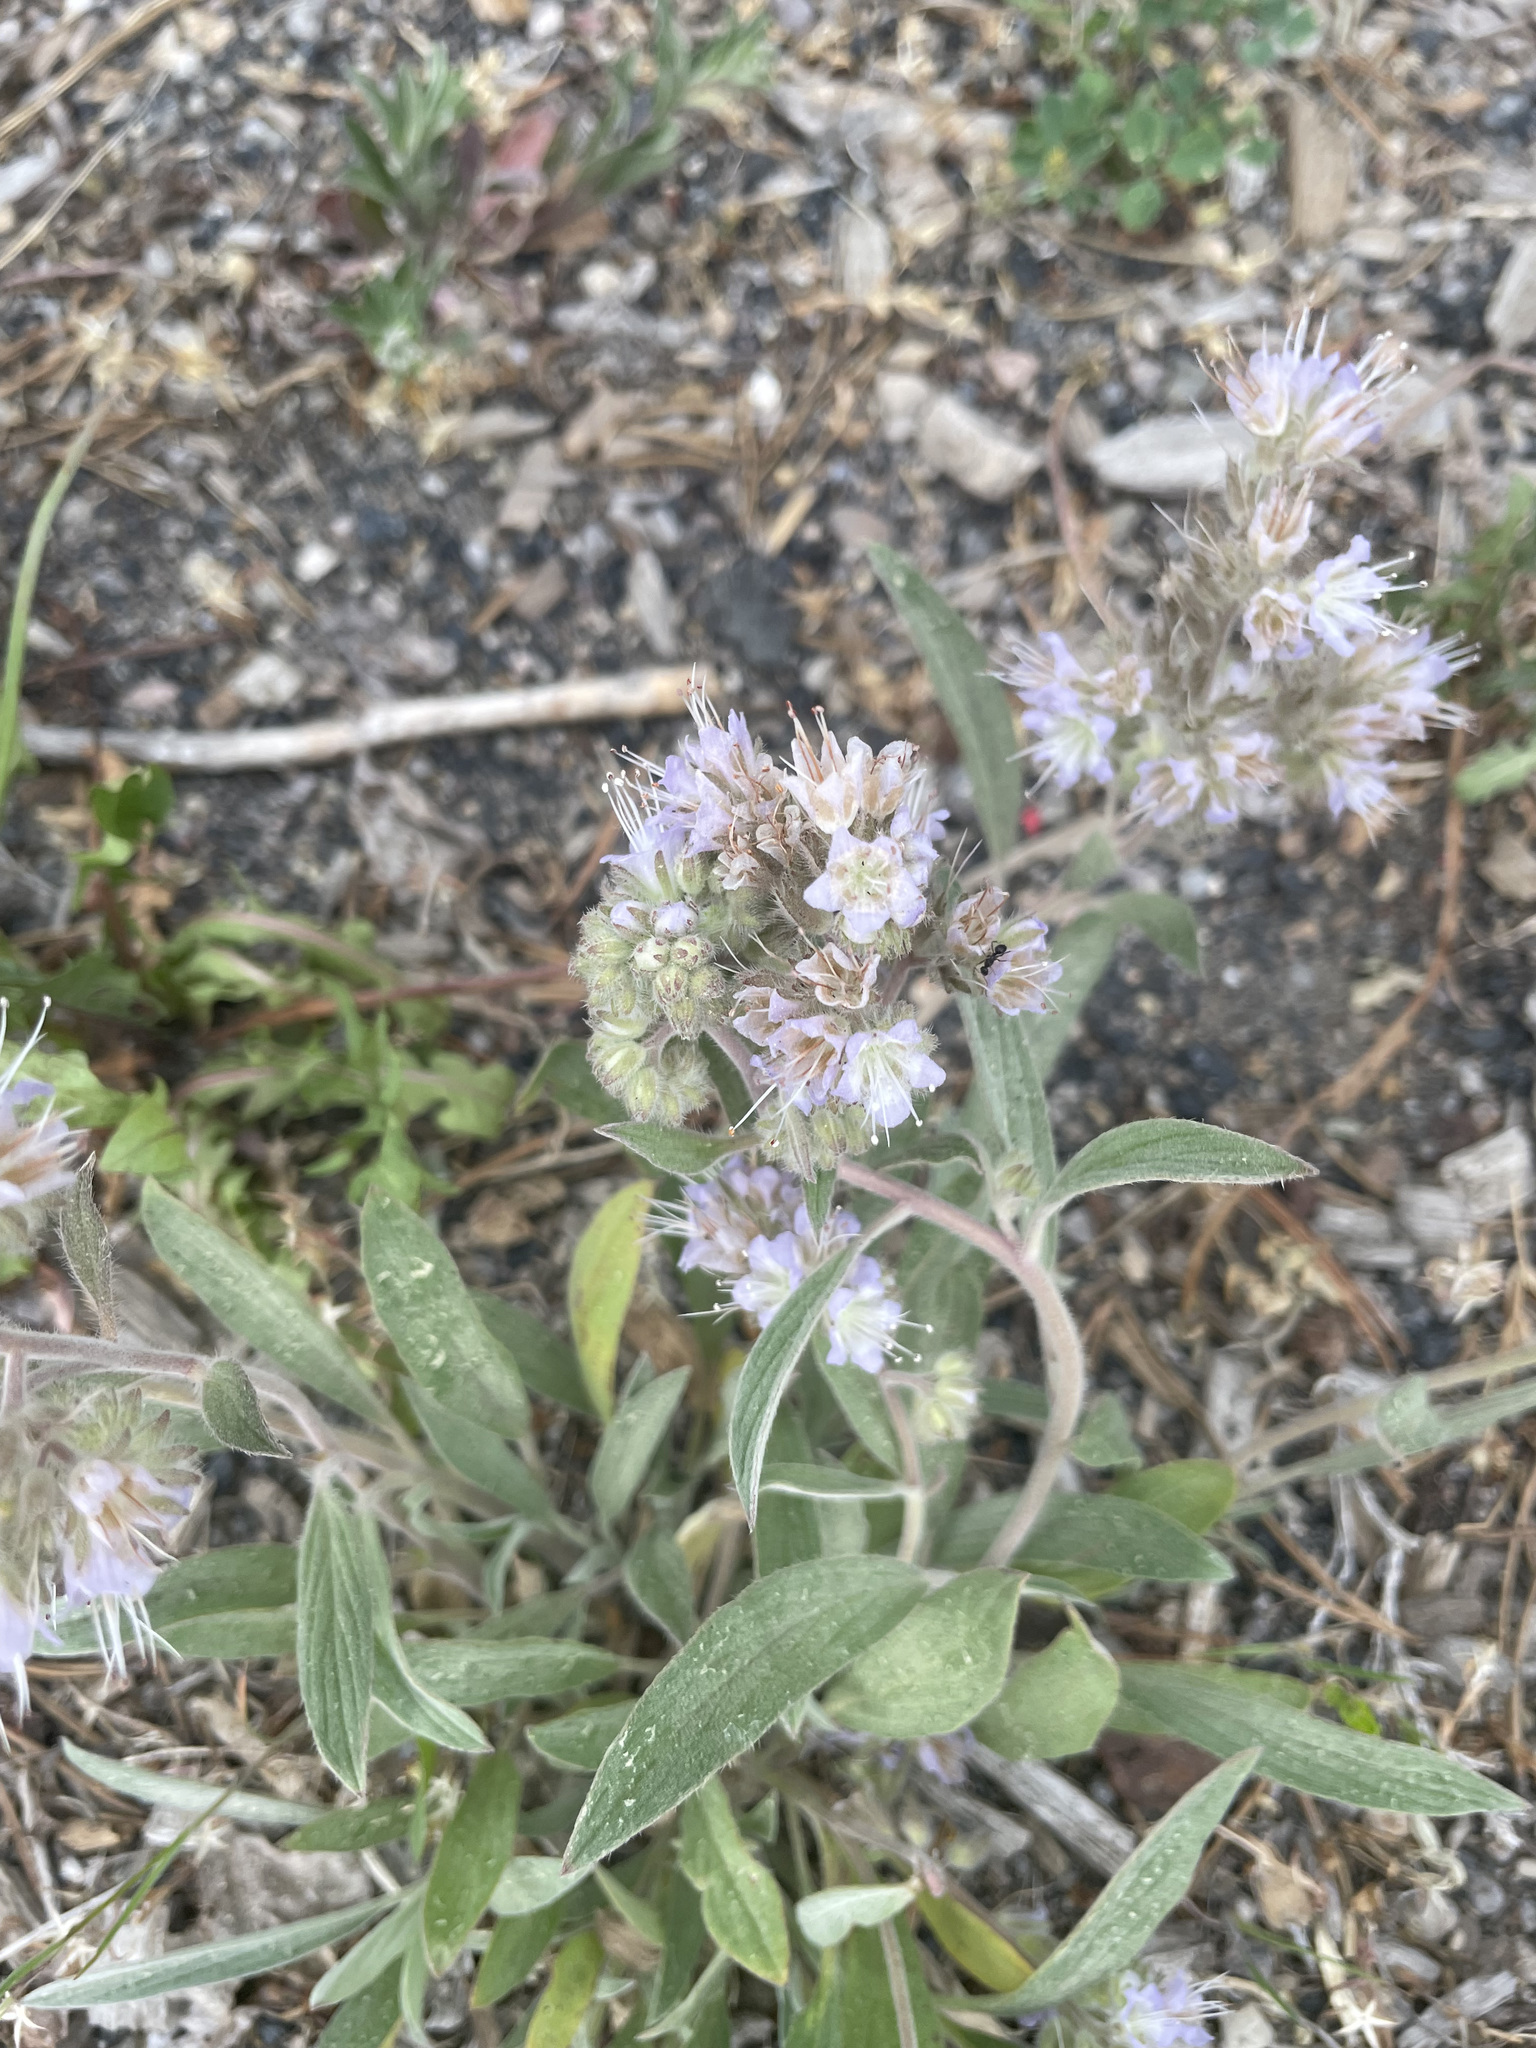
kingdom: Plantae
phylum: Tracheophyta
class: Magnoliopsida
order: Boraginales
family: Hydrophyllaceae
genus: Phacelia
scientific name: Phacelia hastata
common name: Silver-leaved phacelia
